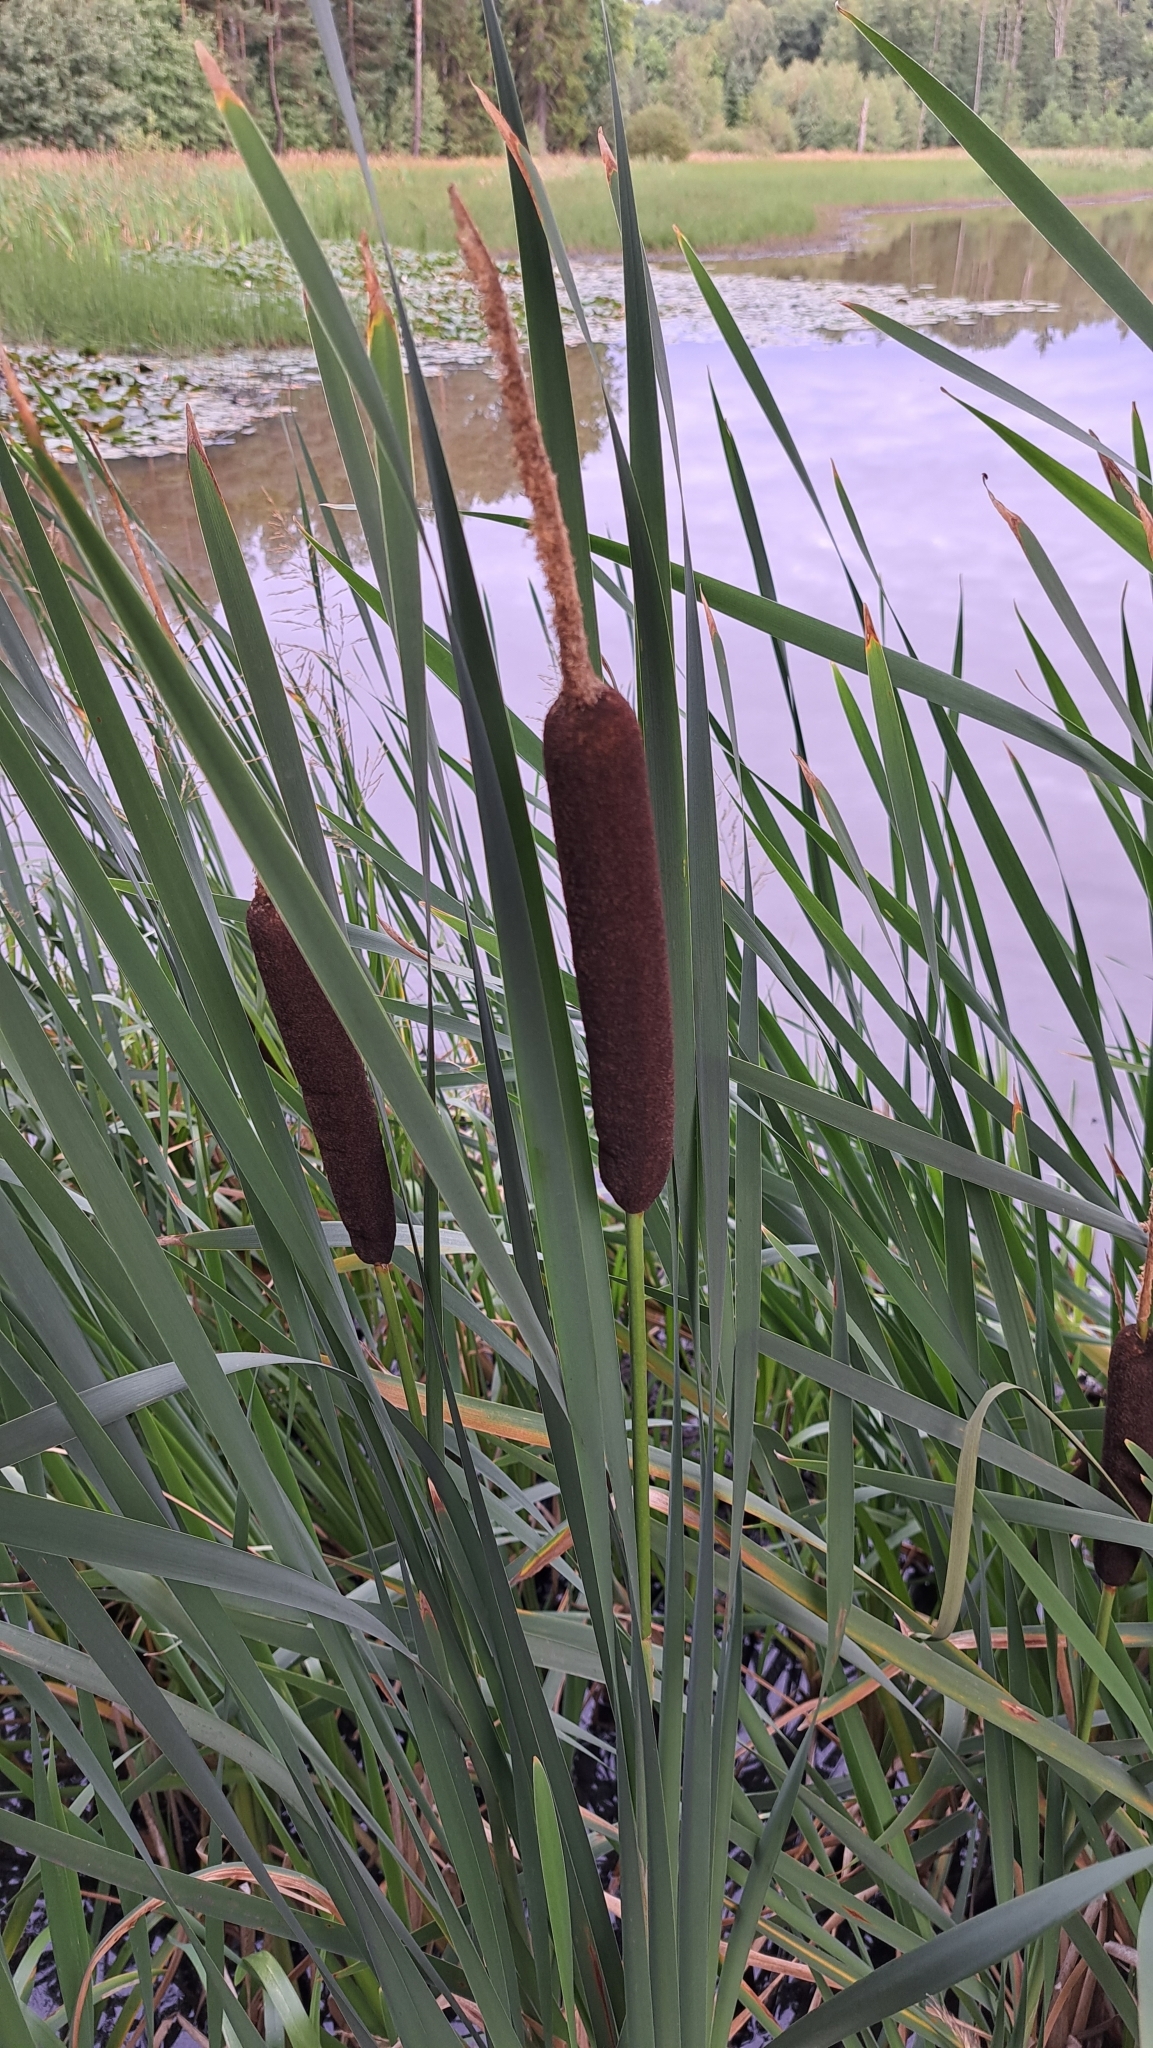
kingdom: Plantae
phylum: Tracheophyta
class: Liliopsida
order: Poales
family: Typhaceae
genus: Typha
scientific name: Typha latifolia
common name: Broadleaf cattail
